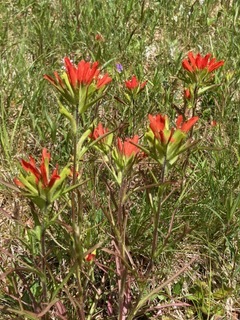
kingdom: Plantae
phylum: Tracheophyta
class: Magnoliopsida
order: Lamiales
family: Orobanchaceae
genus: Castilleja
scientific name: Castilleja coccinea
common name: Scarlet paintbrush
